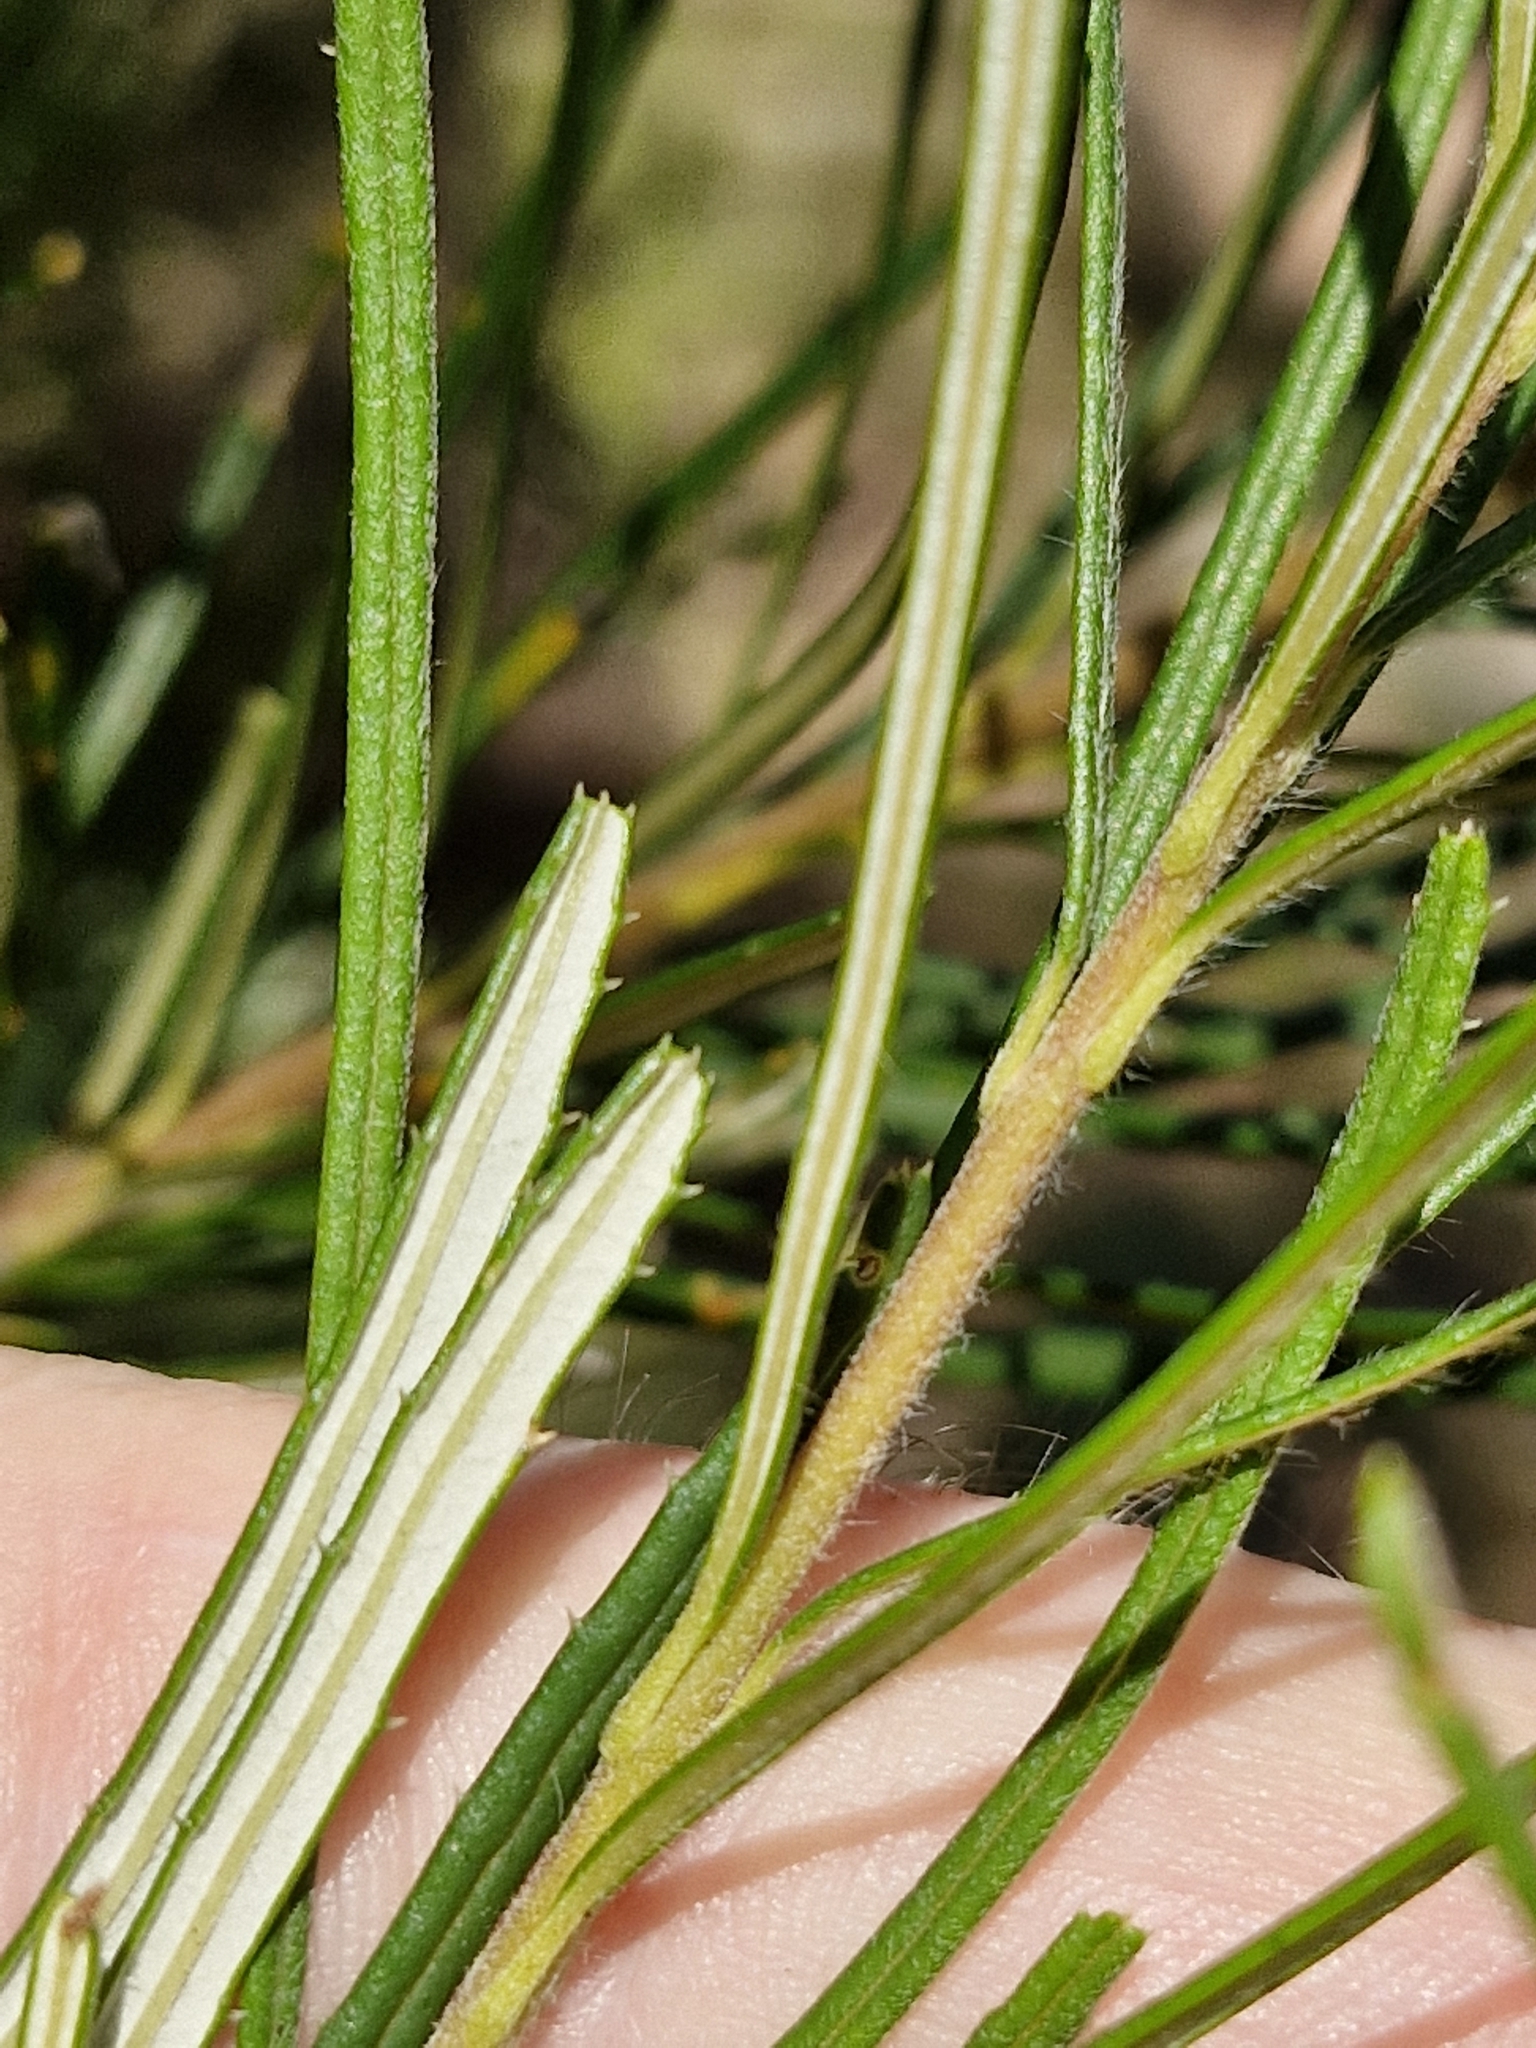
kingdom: Plantae
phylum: Tracheophyta
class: Magnoliopsida
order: Proteales
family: Proteaceae
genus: Banksia
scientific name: Banksia spinulosa
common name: Hairpin banksia
